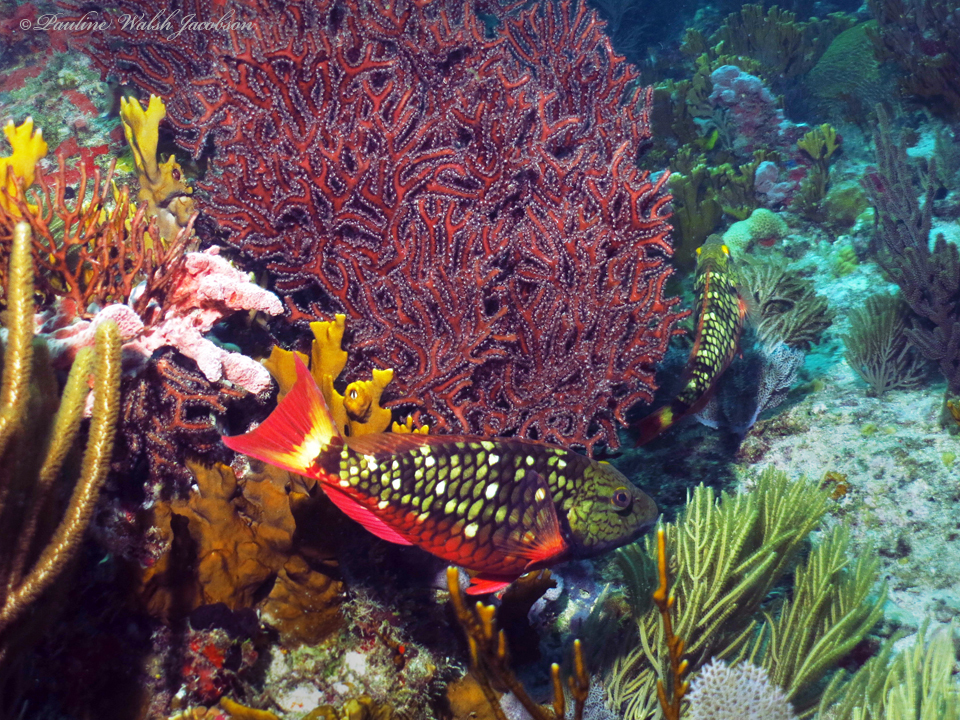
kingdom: Animalia
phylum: Chordata
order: Perciformes
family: Scaridae
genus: Sparisoma
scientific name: Sparisoma viride
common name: Stoplight parrotfish
